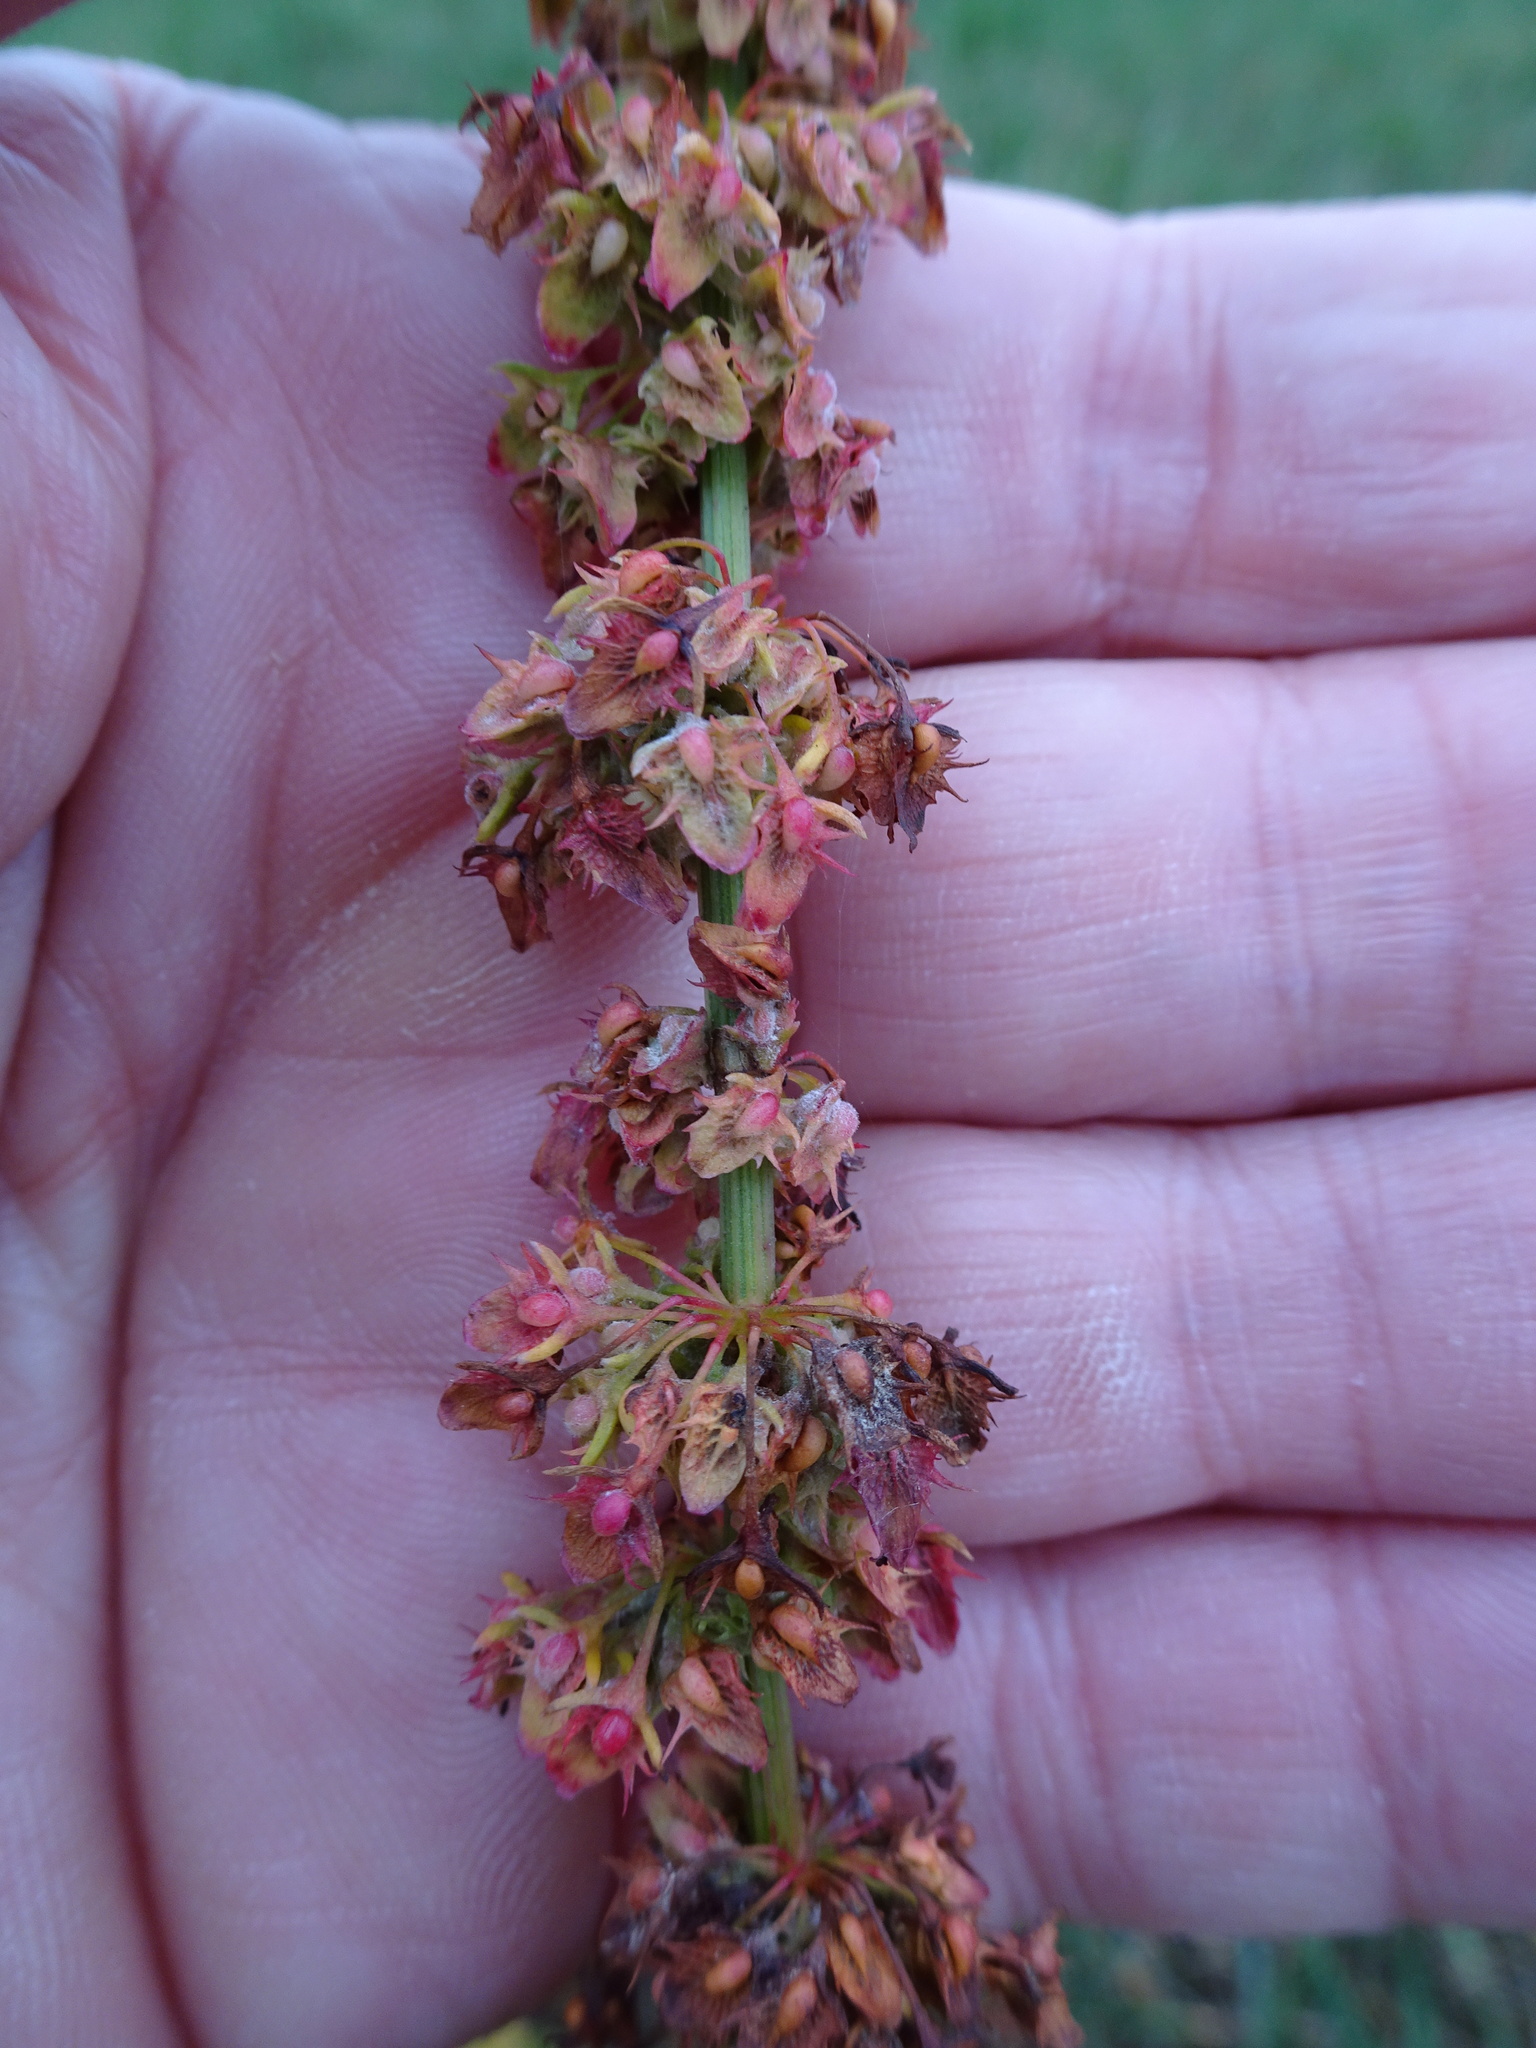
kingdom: Plantae
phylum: Tracheophyta
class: Magnoliopsida
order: Caryophyllales
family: Polygonaceae
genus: Rumex
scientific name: Rumex obtusifolius
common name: Bitter dock
